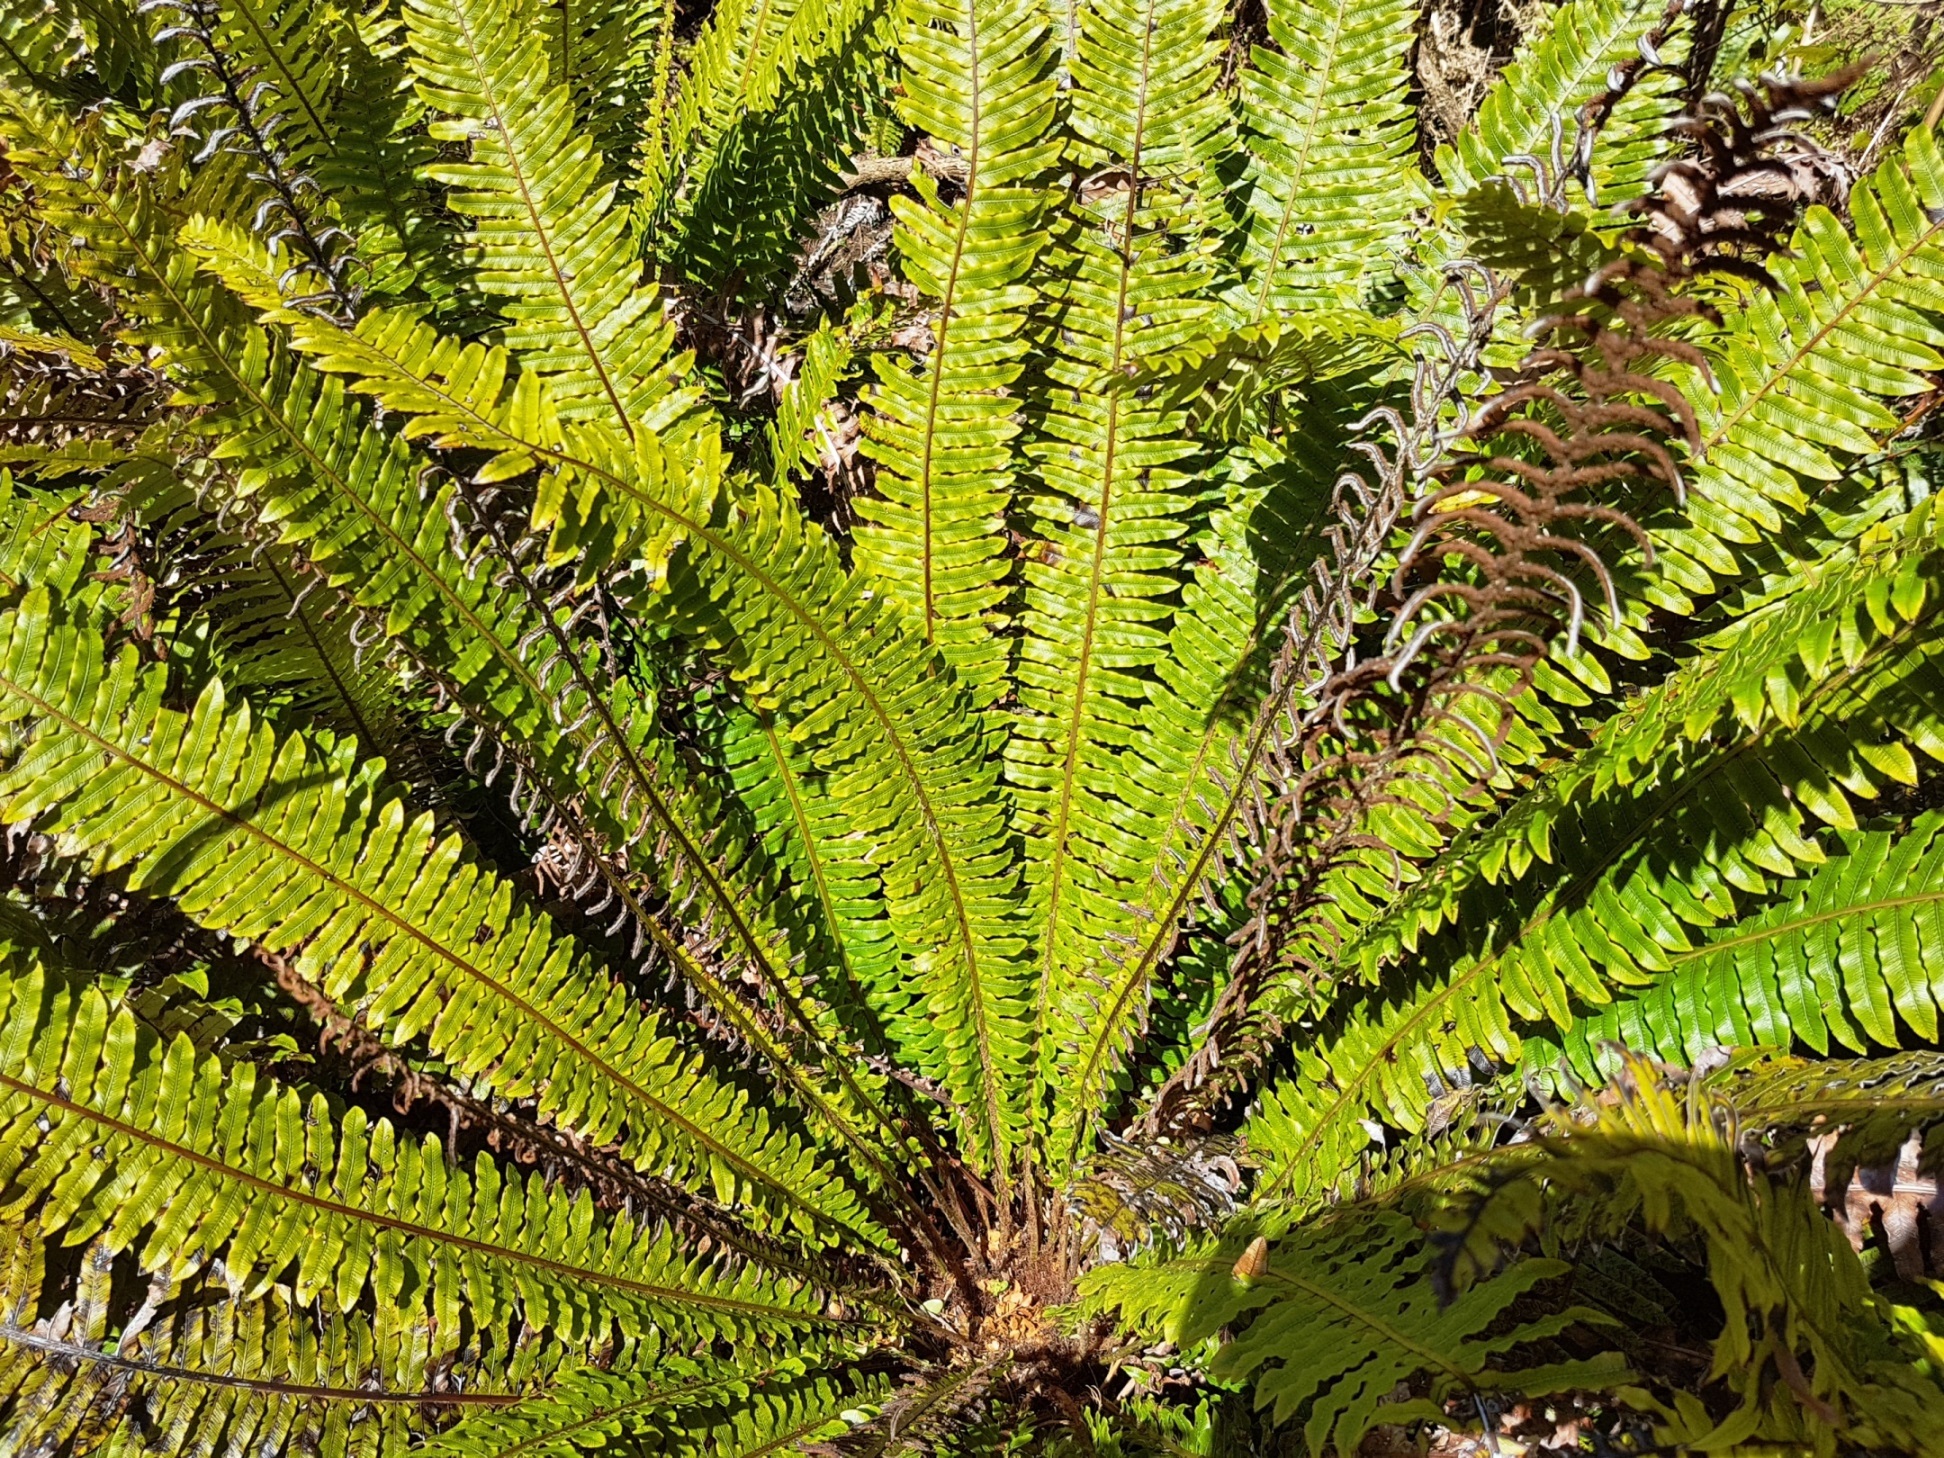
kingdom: Plantae
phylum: Tracheophyta
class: Polypodiopsida
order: Polypodiales
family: Blechnaceae
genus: Lomaria
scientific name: Lomaria discolor
